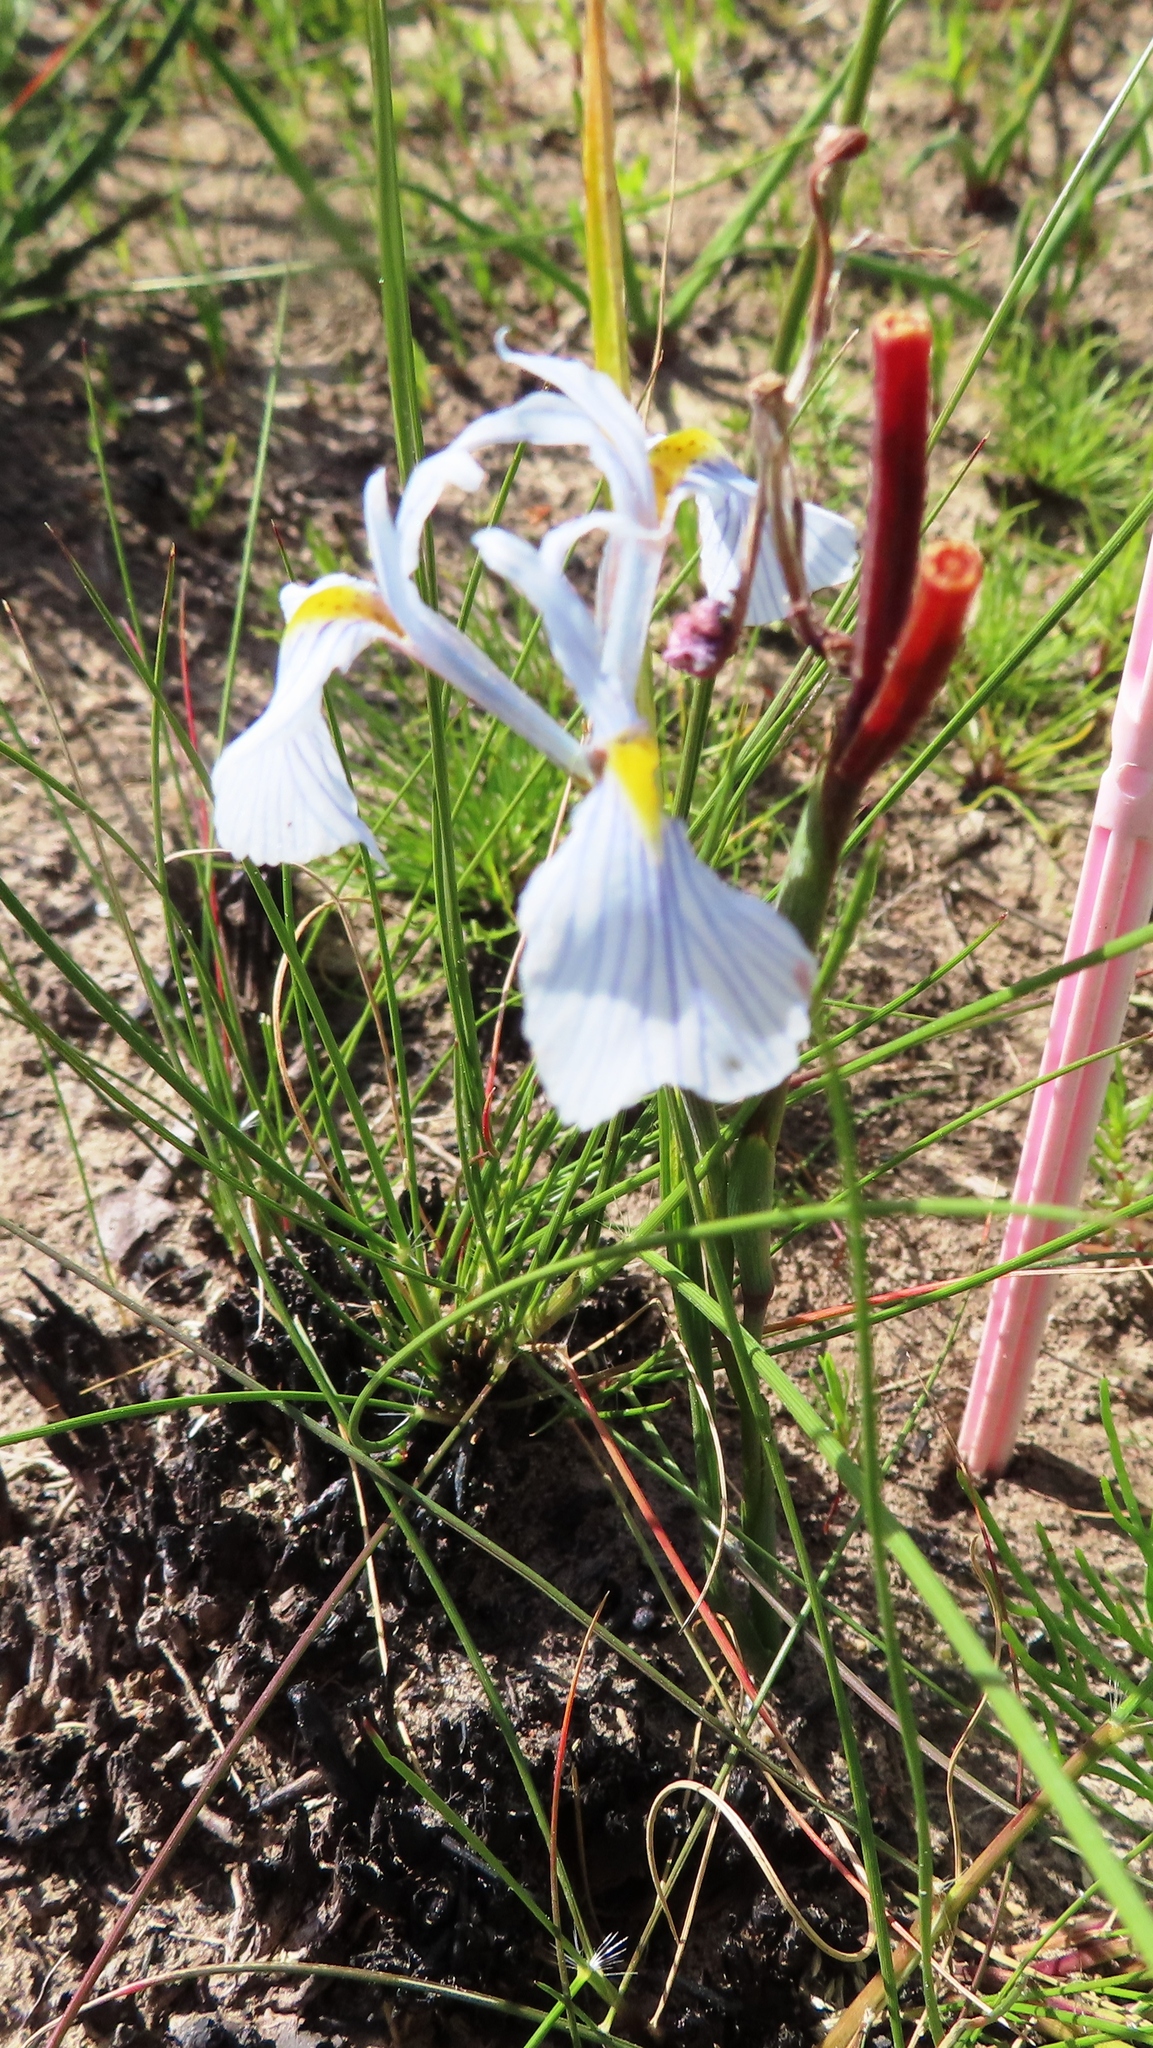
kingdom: Plantae
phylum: Tracheophyta
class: Liliopsida
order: Asparagales
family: Iridaceae
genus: Moraea
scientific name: Moraea ogamana
